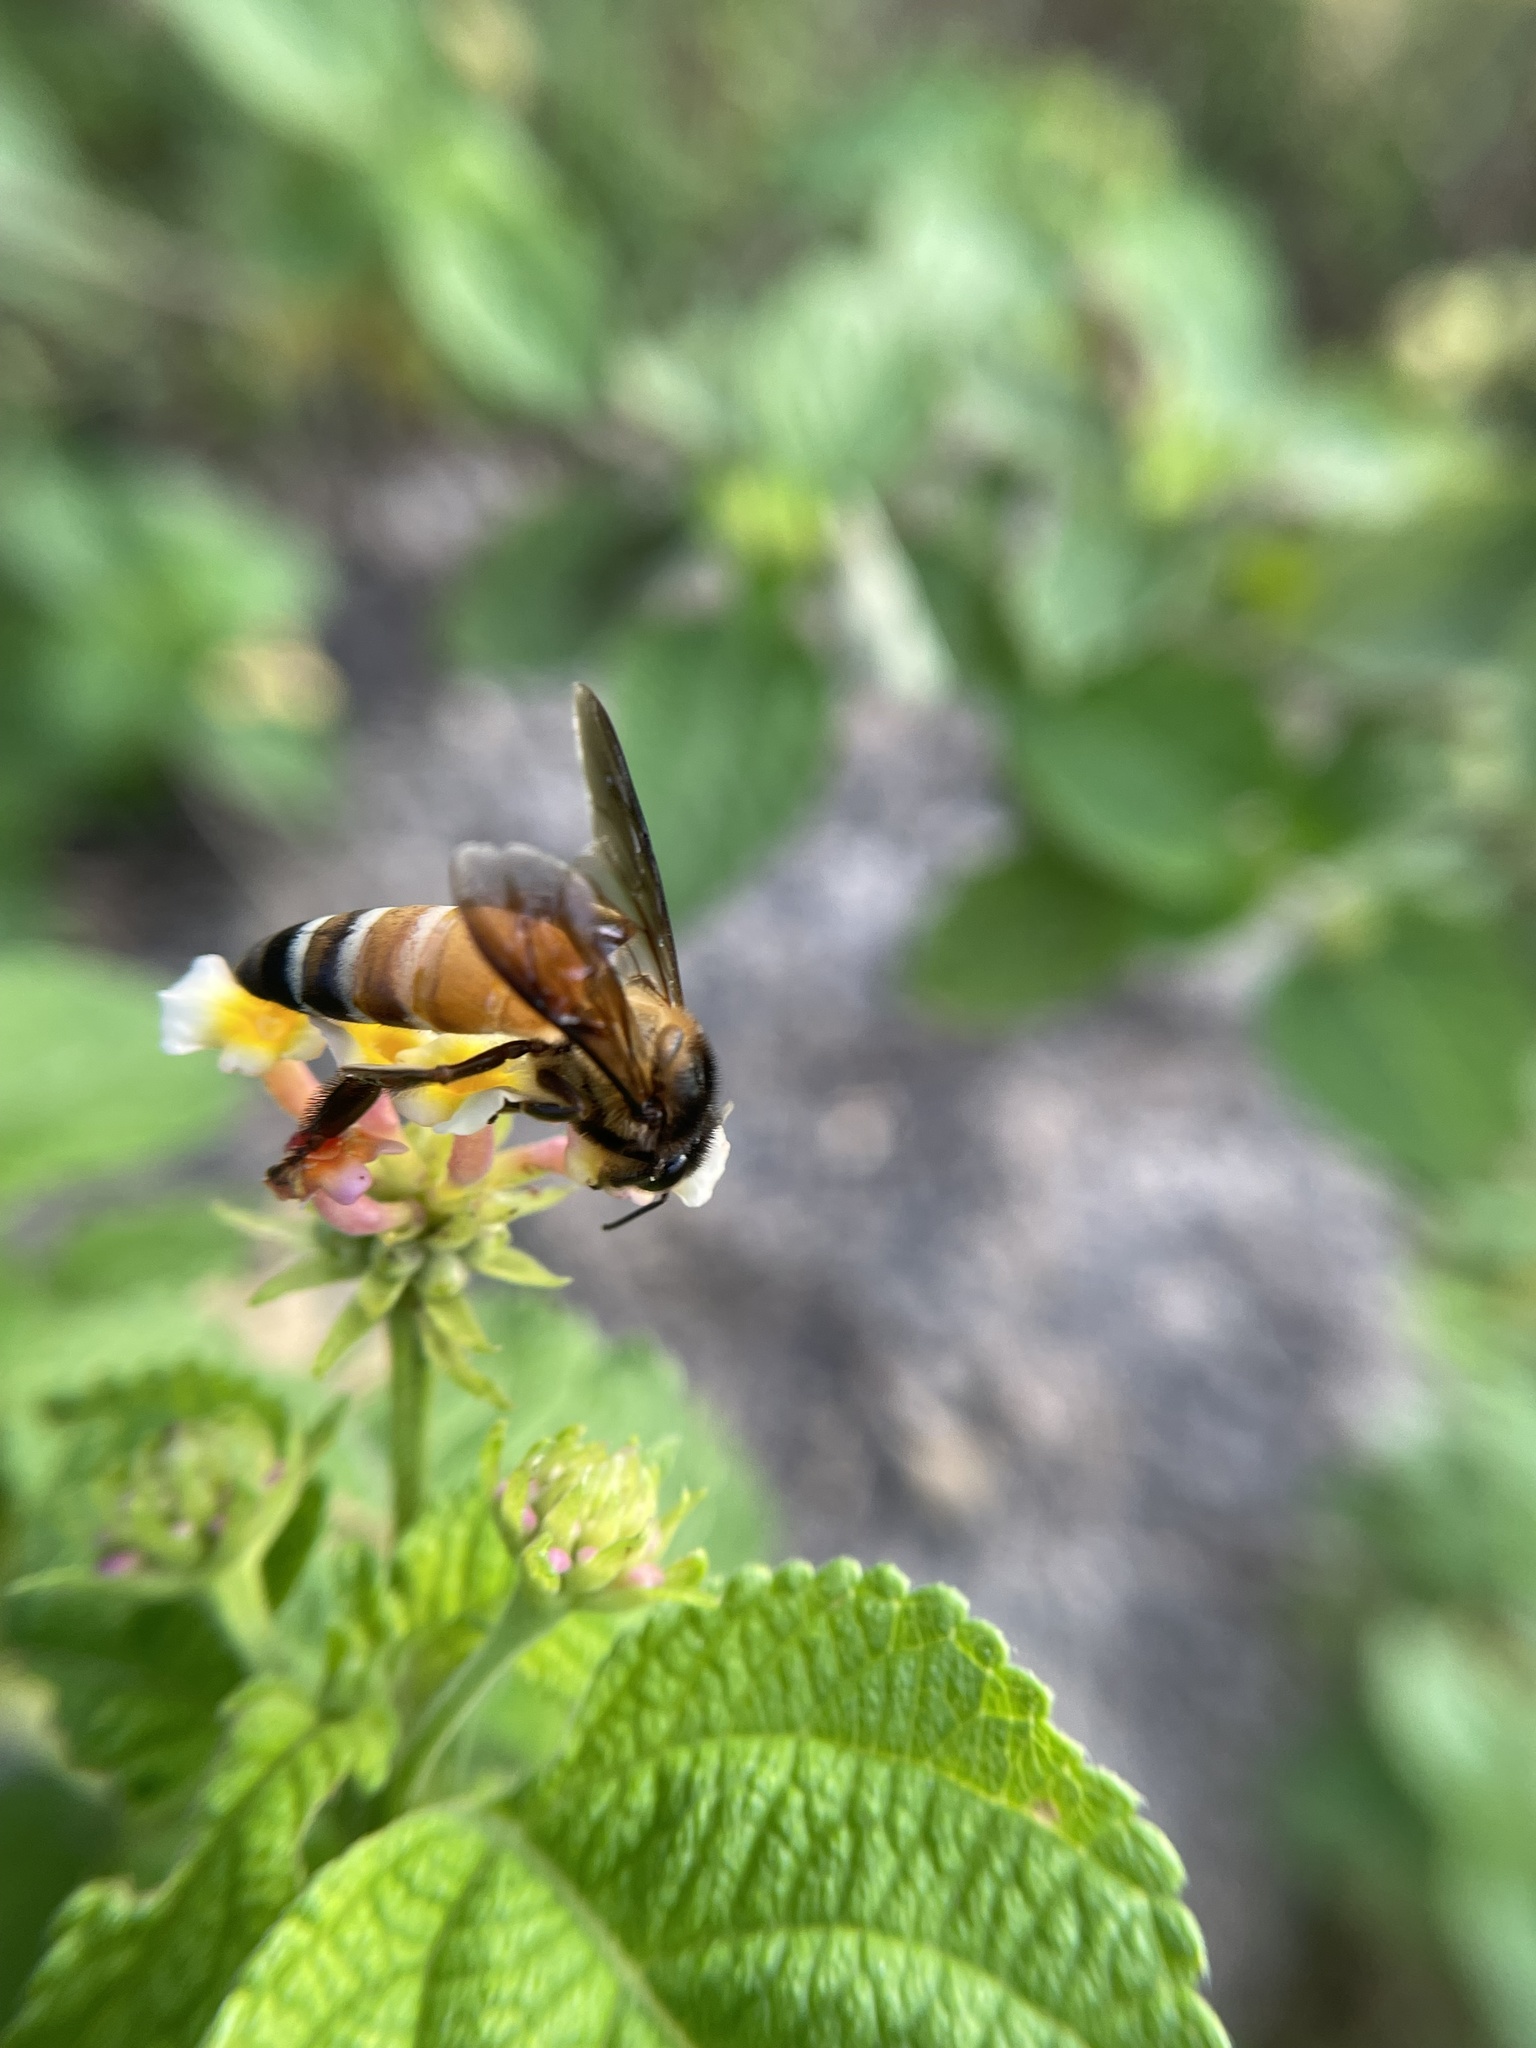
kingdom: Animalia
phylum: Arthropoda
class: Insecta
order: Hymenoptera
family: Apidae
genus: Apis
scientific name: Apis dorsata
